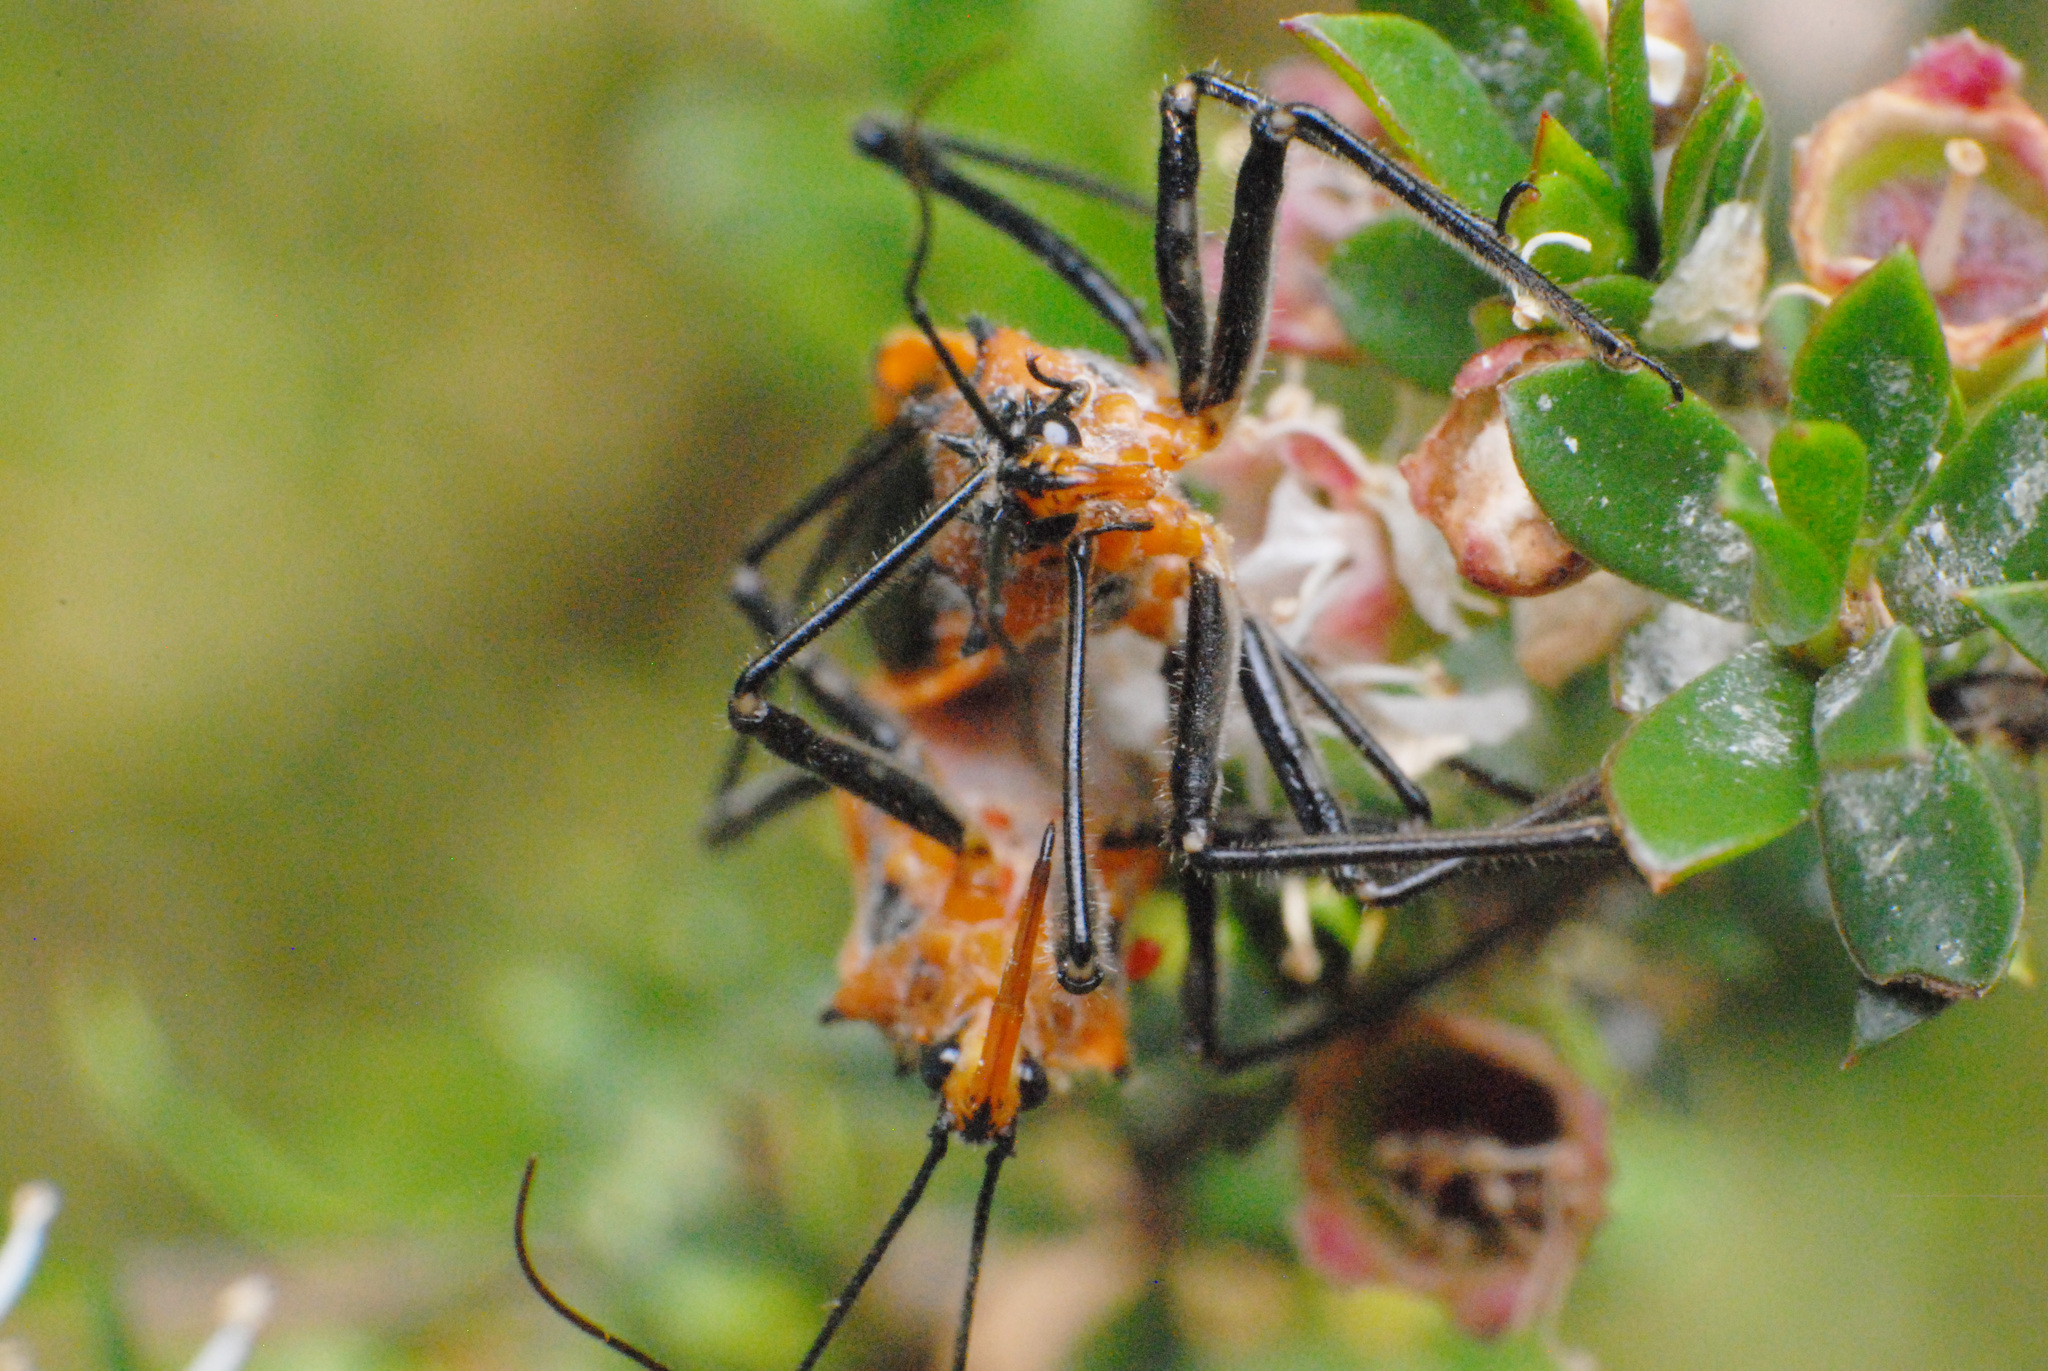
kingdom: Animalia
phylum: Arthropoda
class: Insecta
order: Hemiptera
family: Reduviidae
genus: Gminatus
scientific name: Gminatus australis
